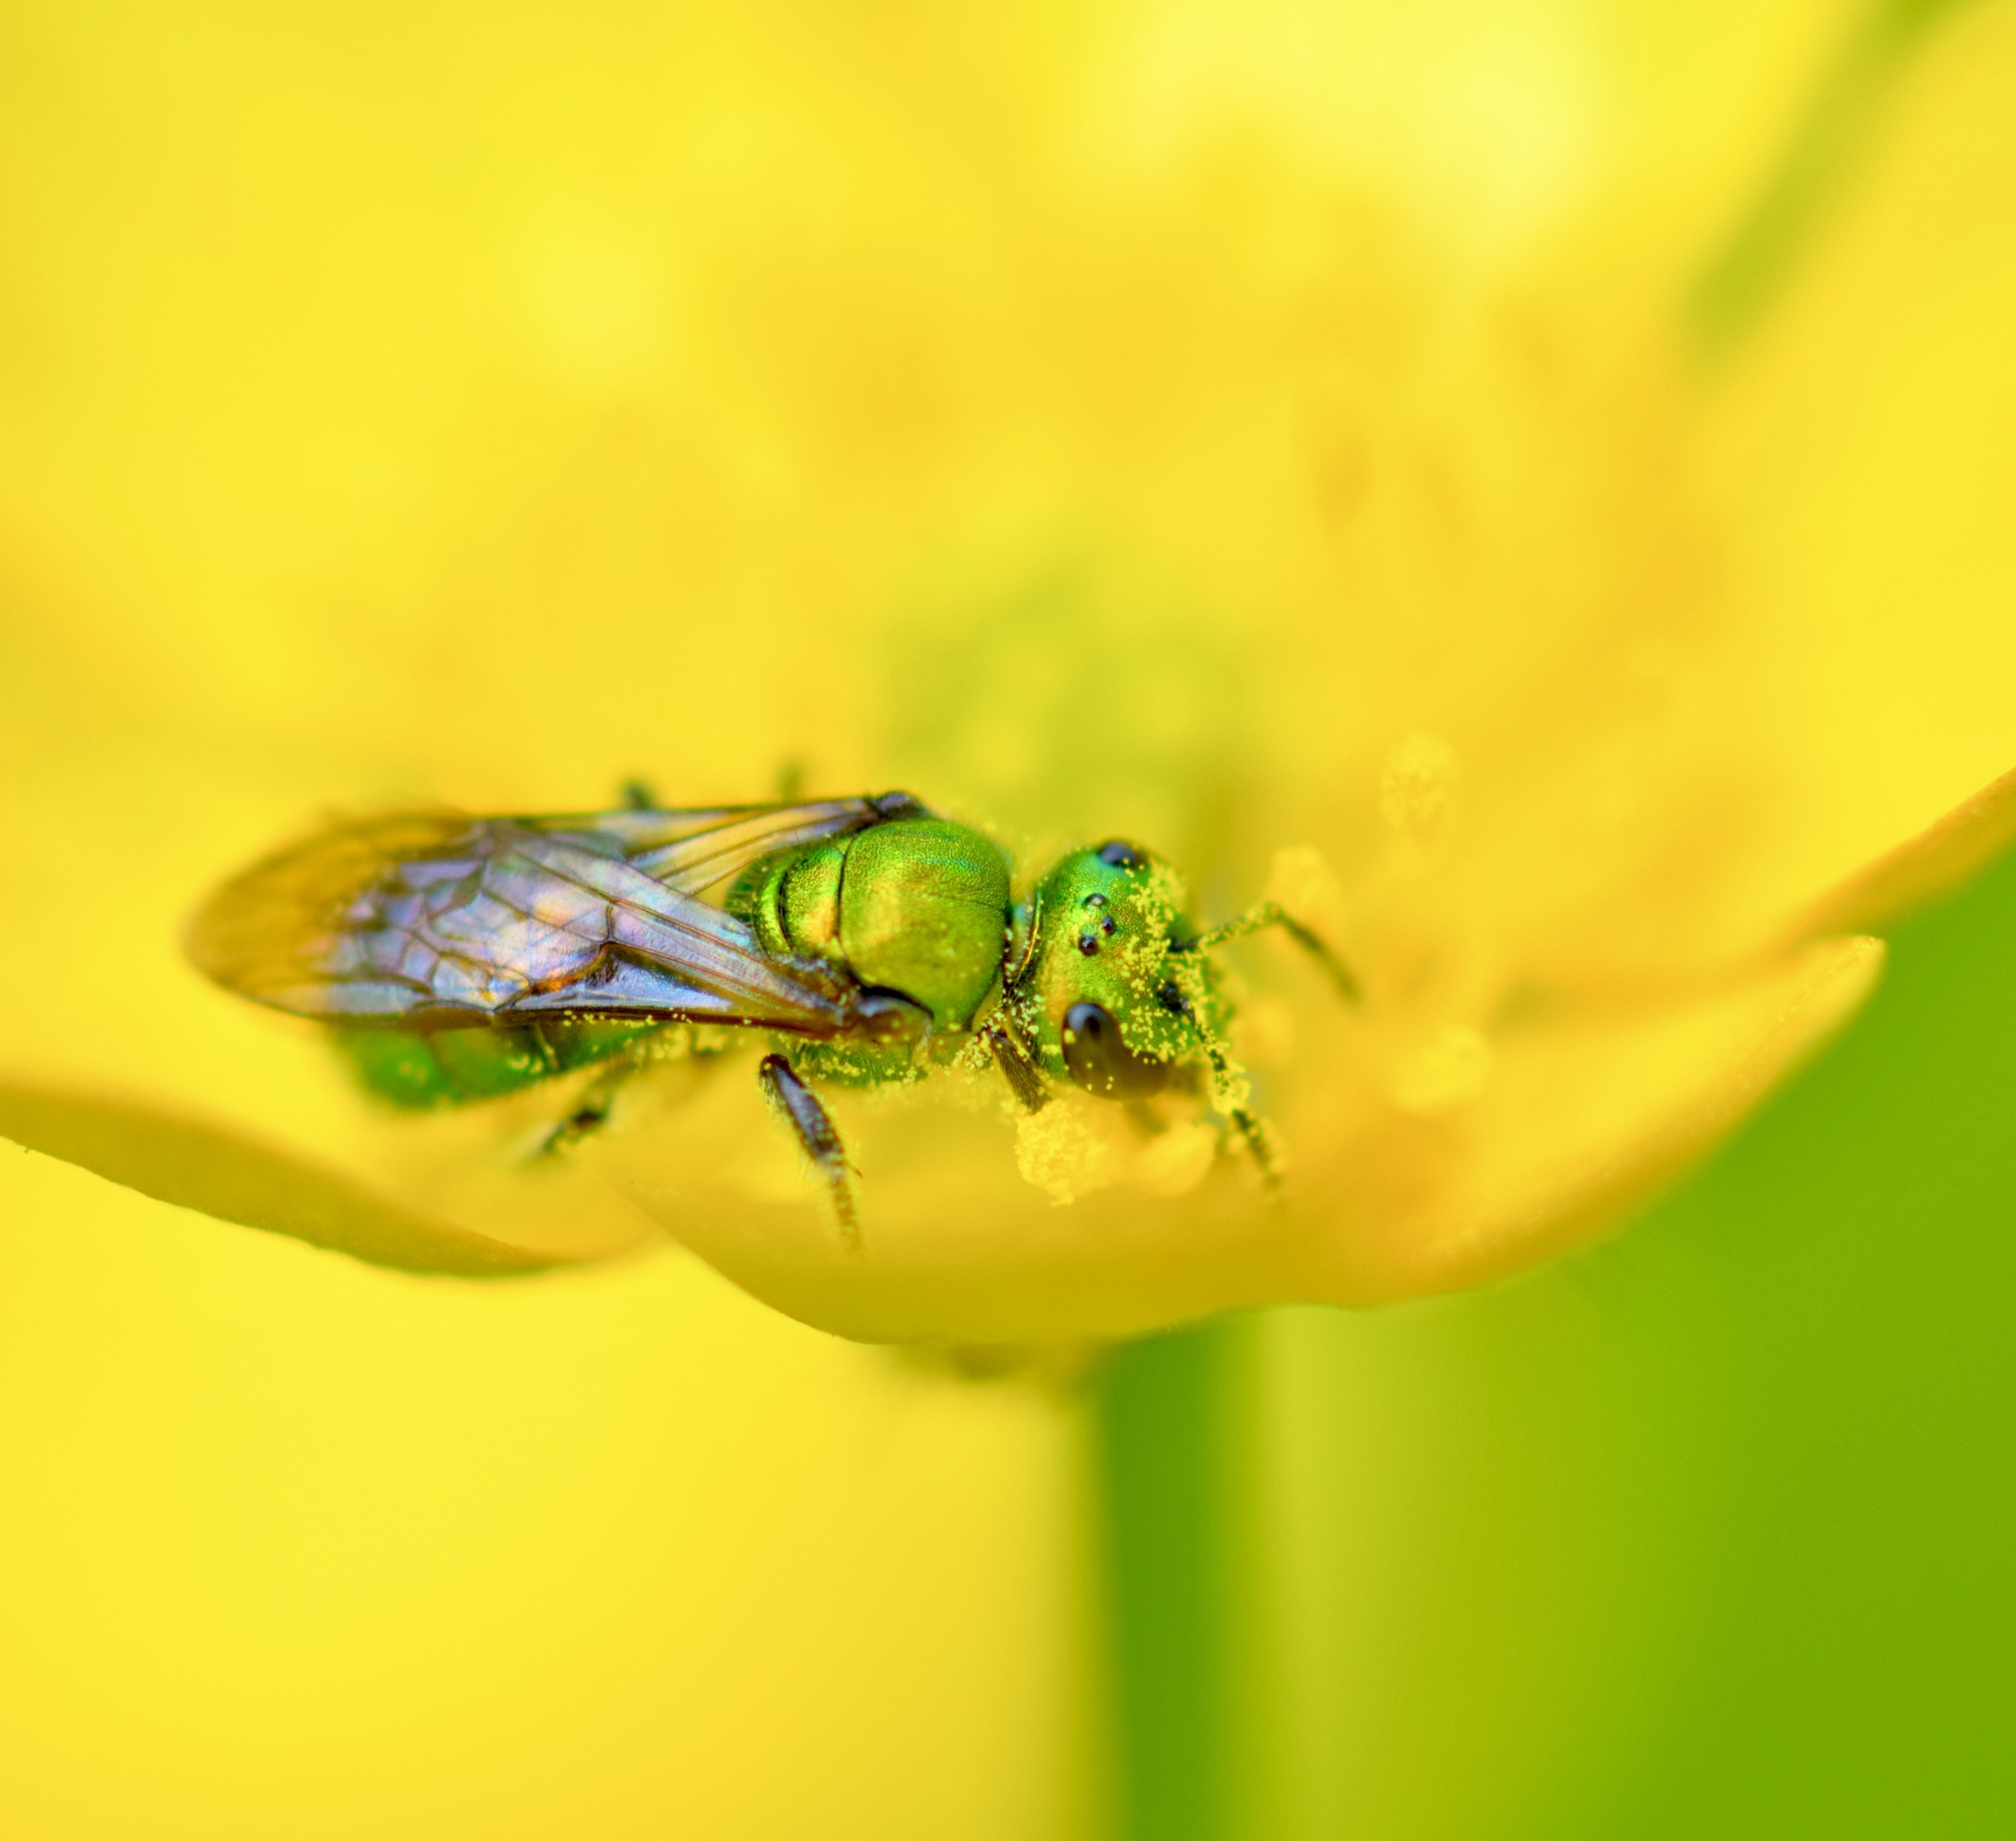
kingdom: Animalia
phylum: Arthropoda
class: Insecta
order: Hymenoptera
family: Halictidae
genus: Augochlora
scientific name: Augochlora pura
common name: Pure green sweat bee
